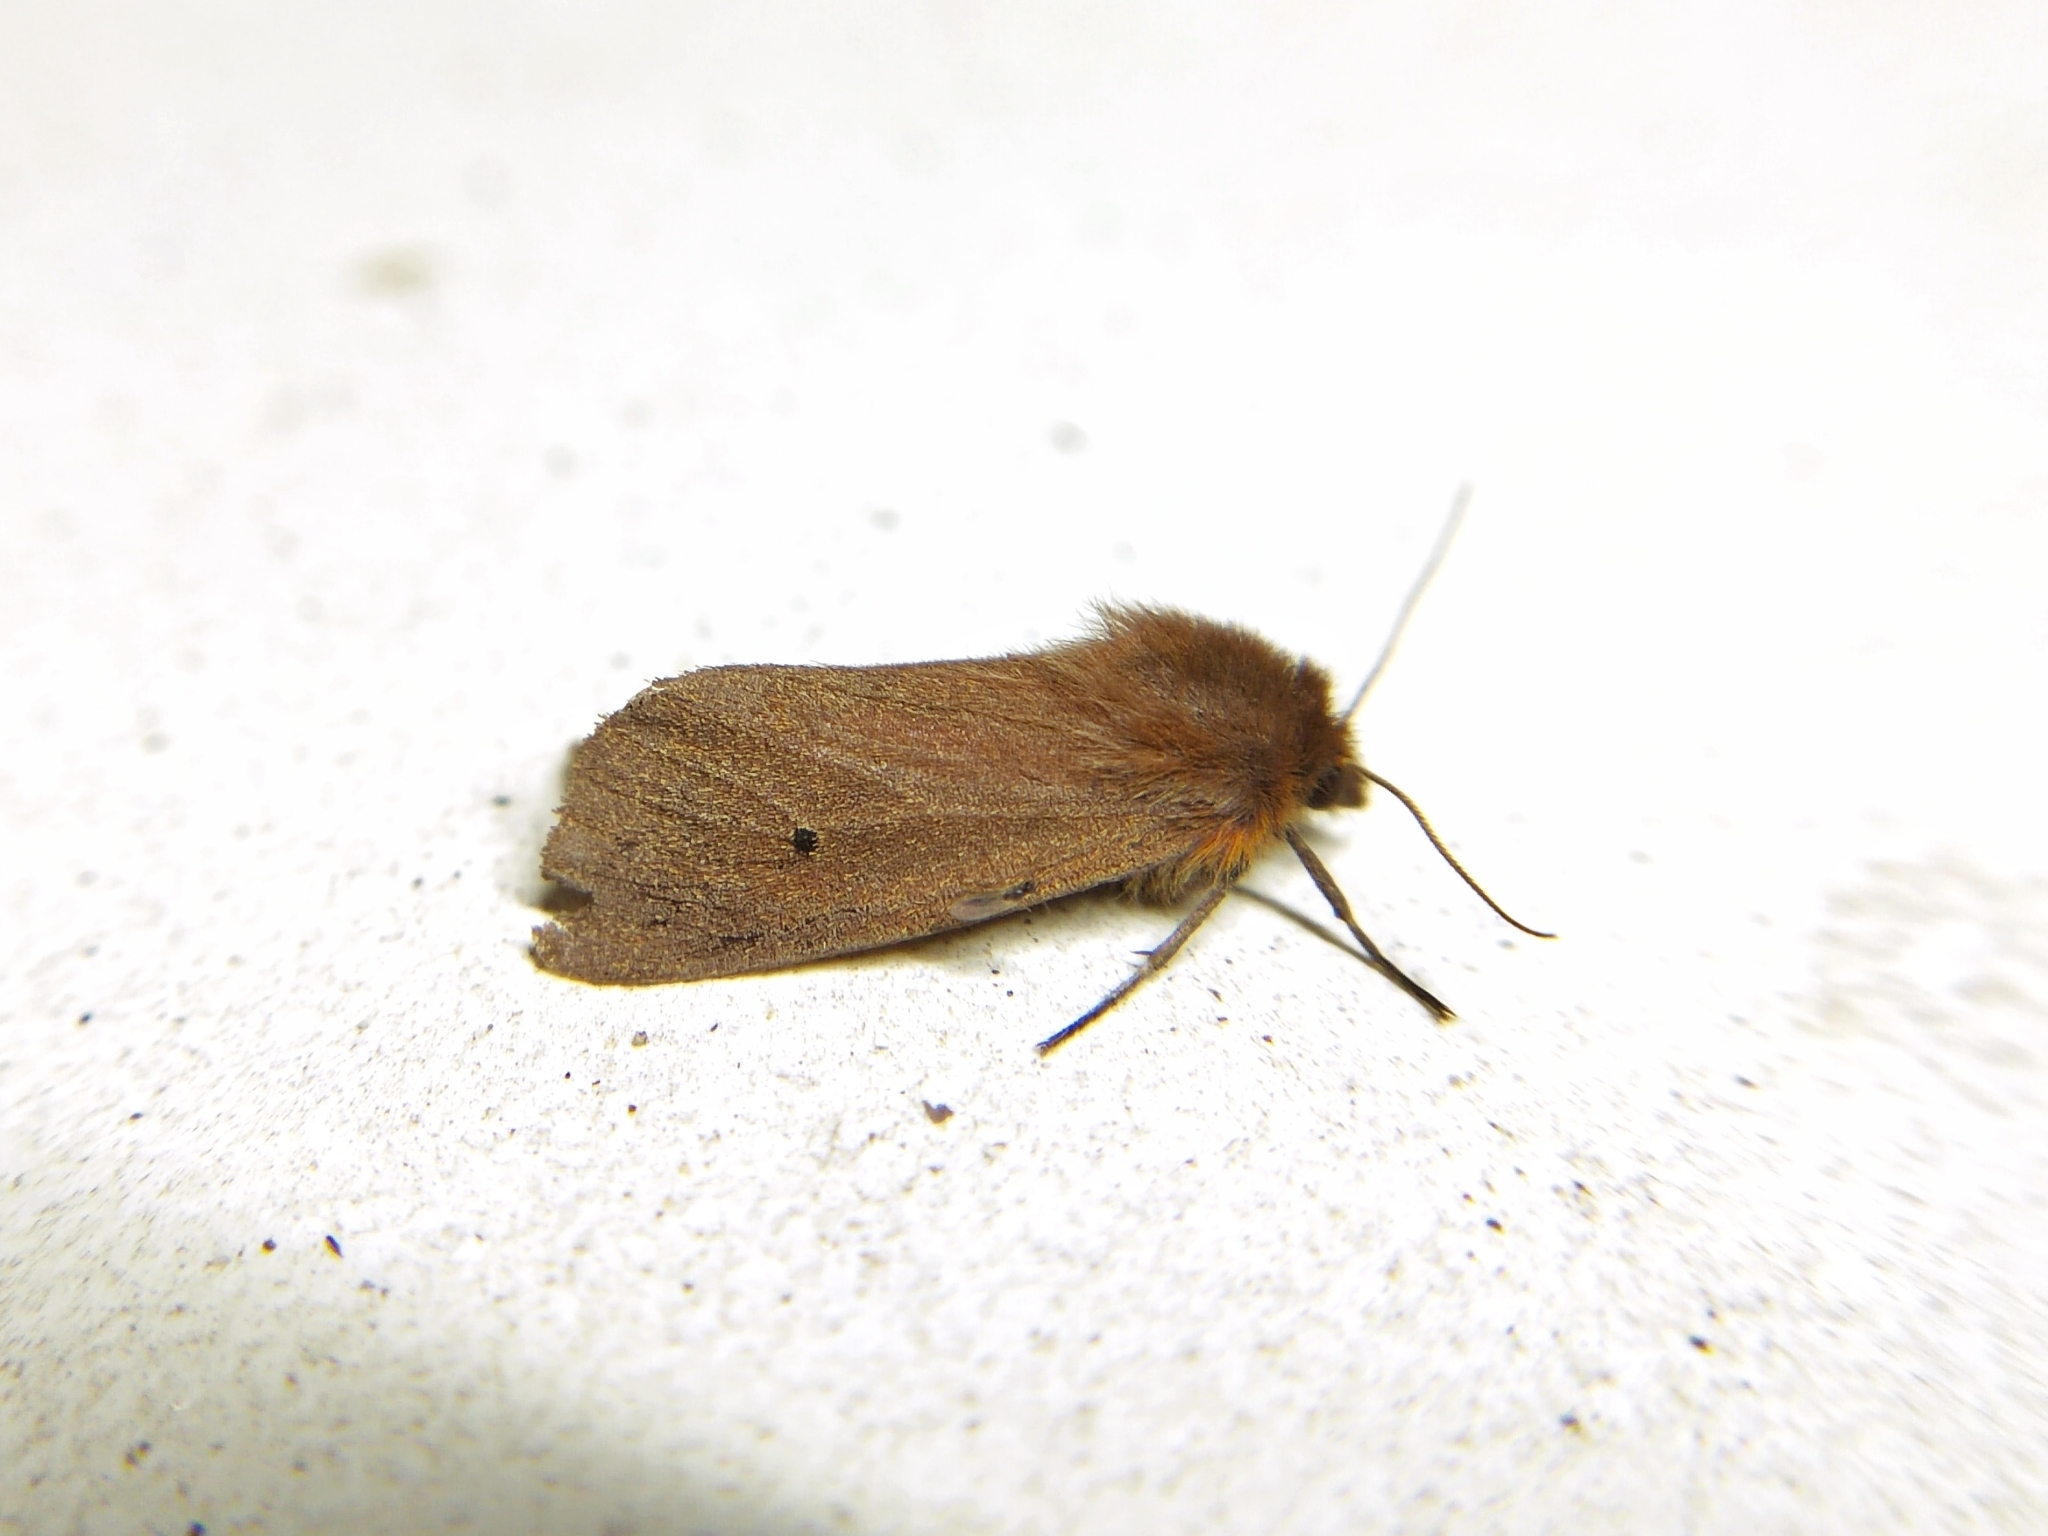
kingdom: Animalia
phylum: Arthropoda
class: Insecta
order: Lepidoptera
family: Erebidae
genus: Phragmatobia
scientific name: Phragmatobia fuliginosa
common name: Ruby tiger
